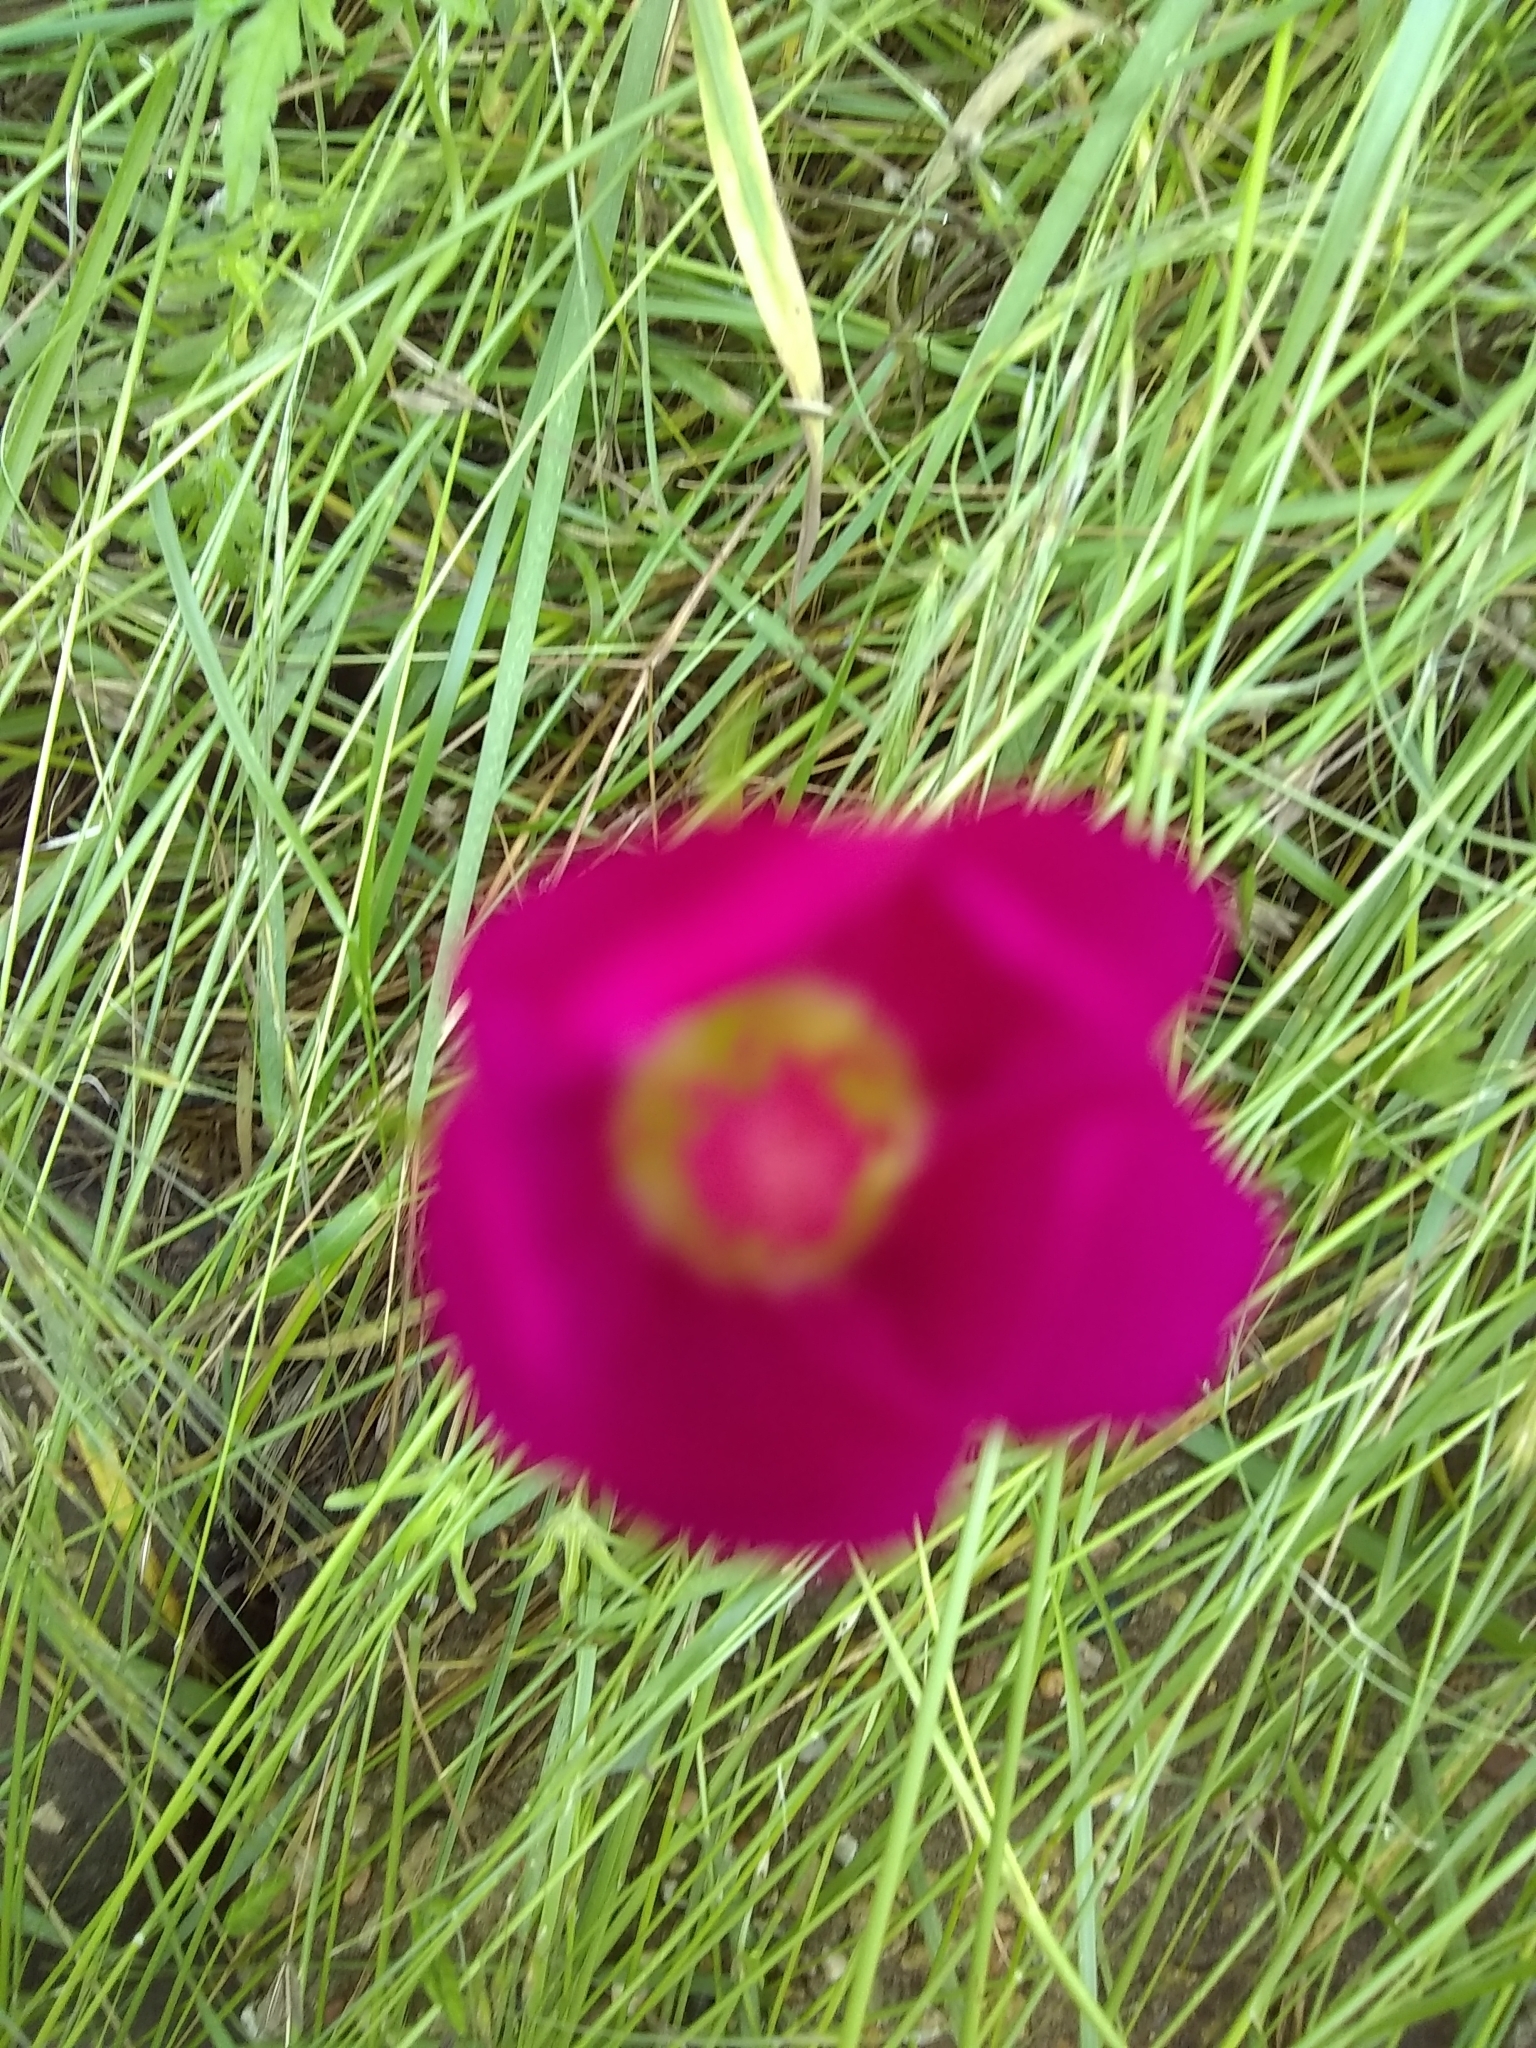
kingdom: Plantae
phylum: Tracheophyta
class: Magnoliopsida
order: Malvales
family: Malvaceae
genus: Callirhoe
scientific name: Callirhoe involucrata
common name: Purple poppy-mallow
